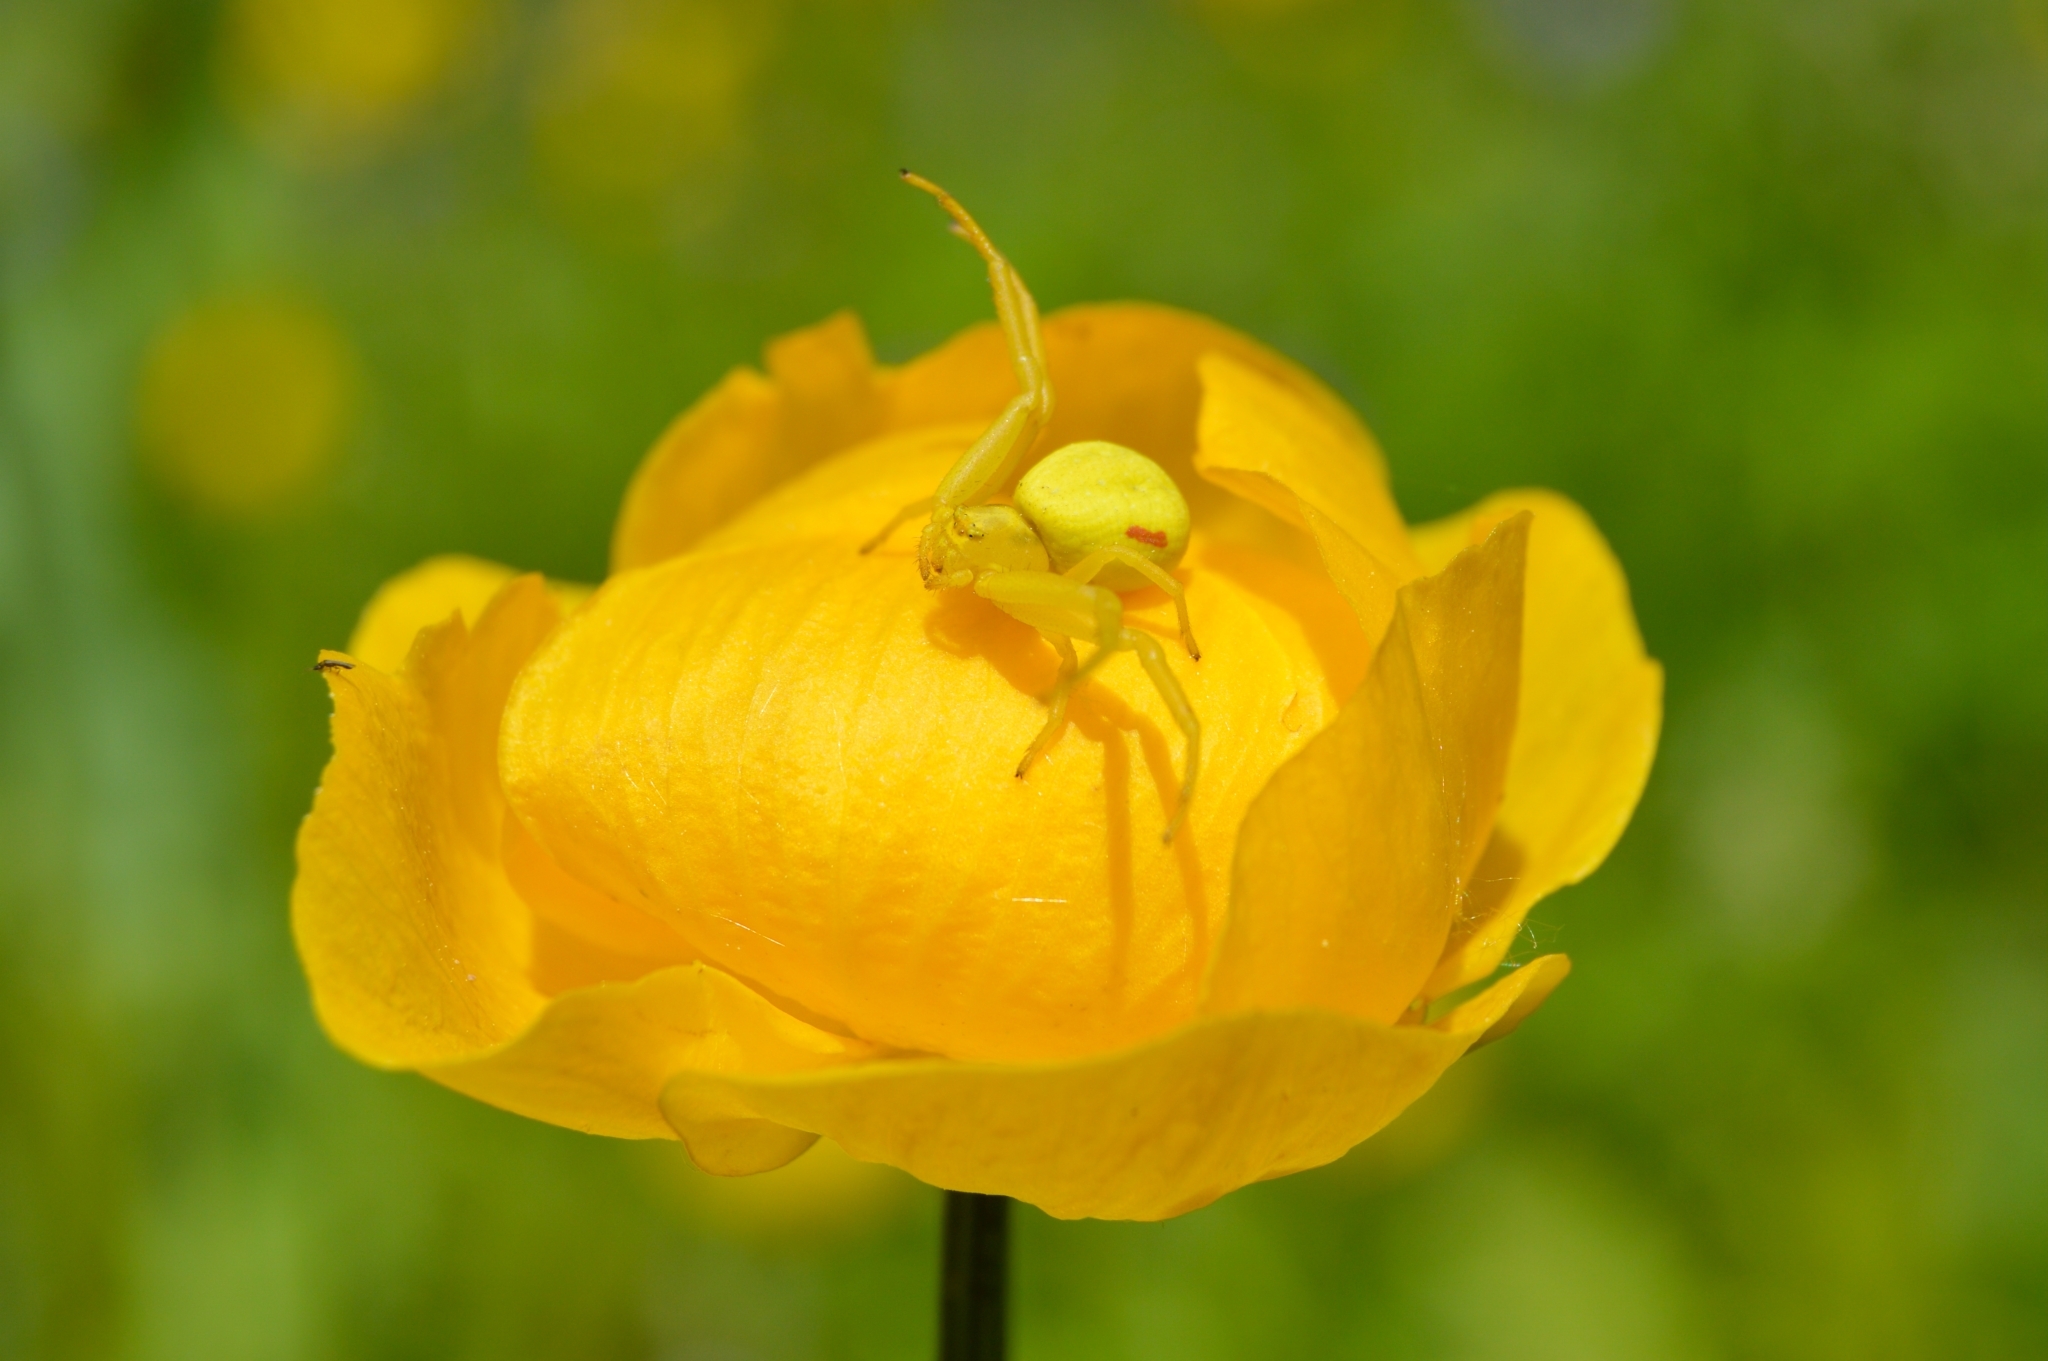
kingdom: Animalia
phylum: Arthropoda
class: Arachnida
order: Araneae
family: Thomisidae
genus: Misumena
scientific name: Misumena vatia
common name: Goldenrod crab spider
